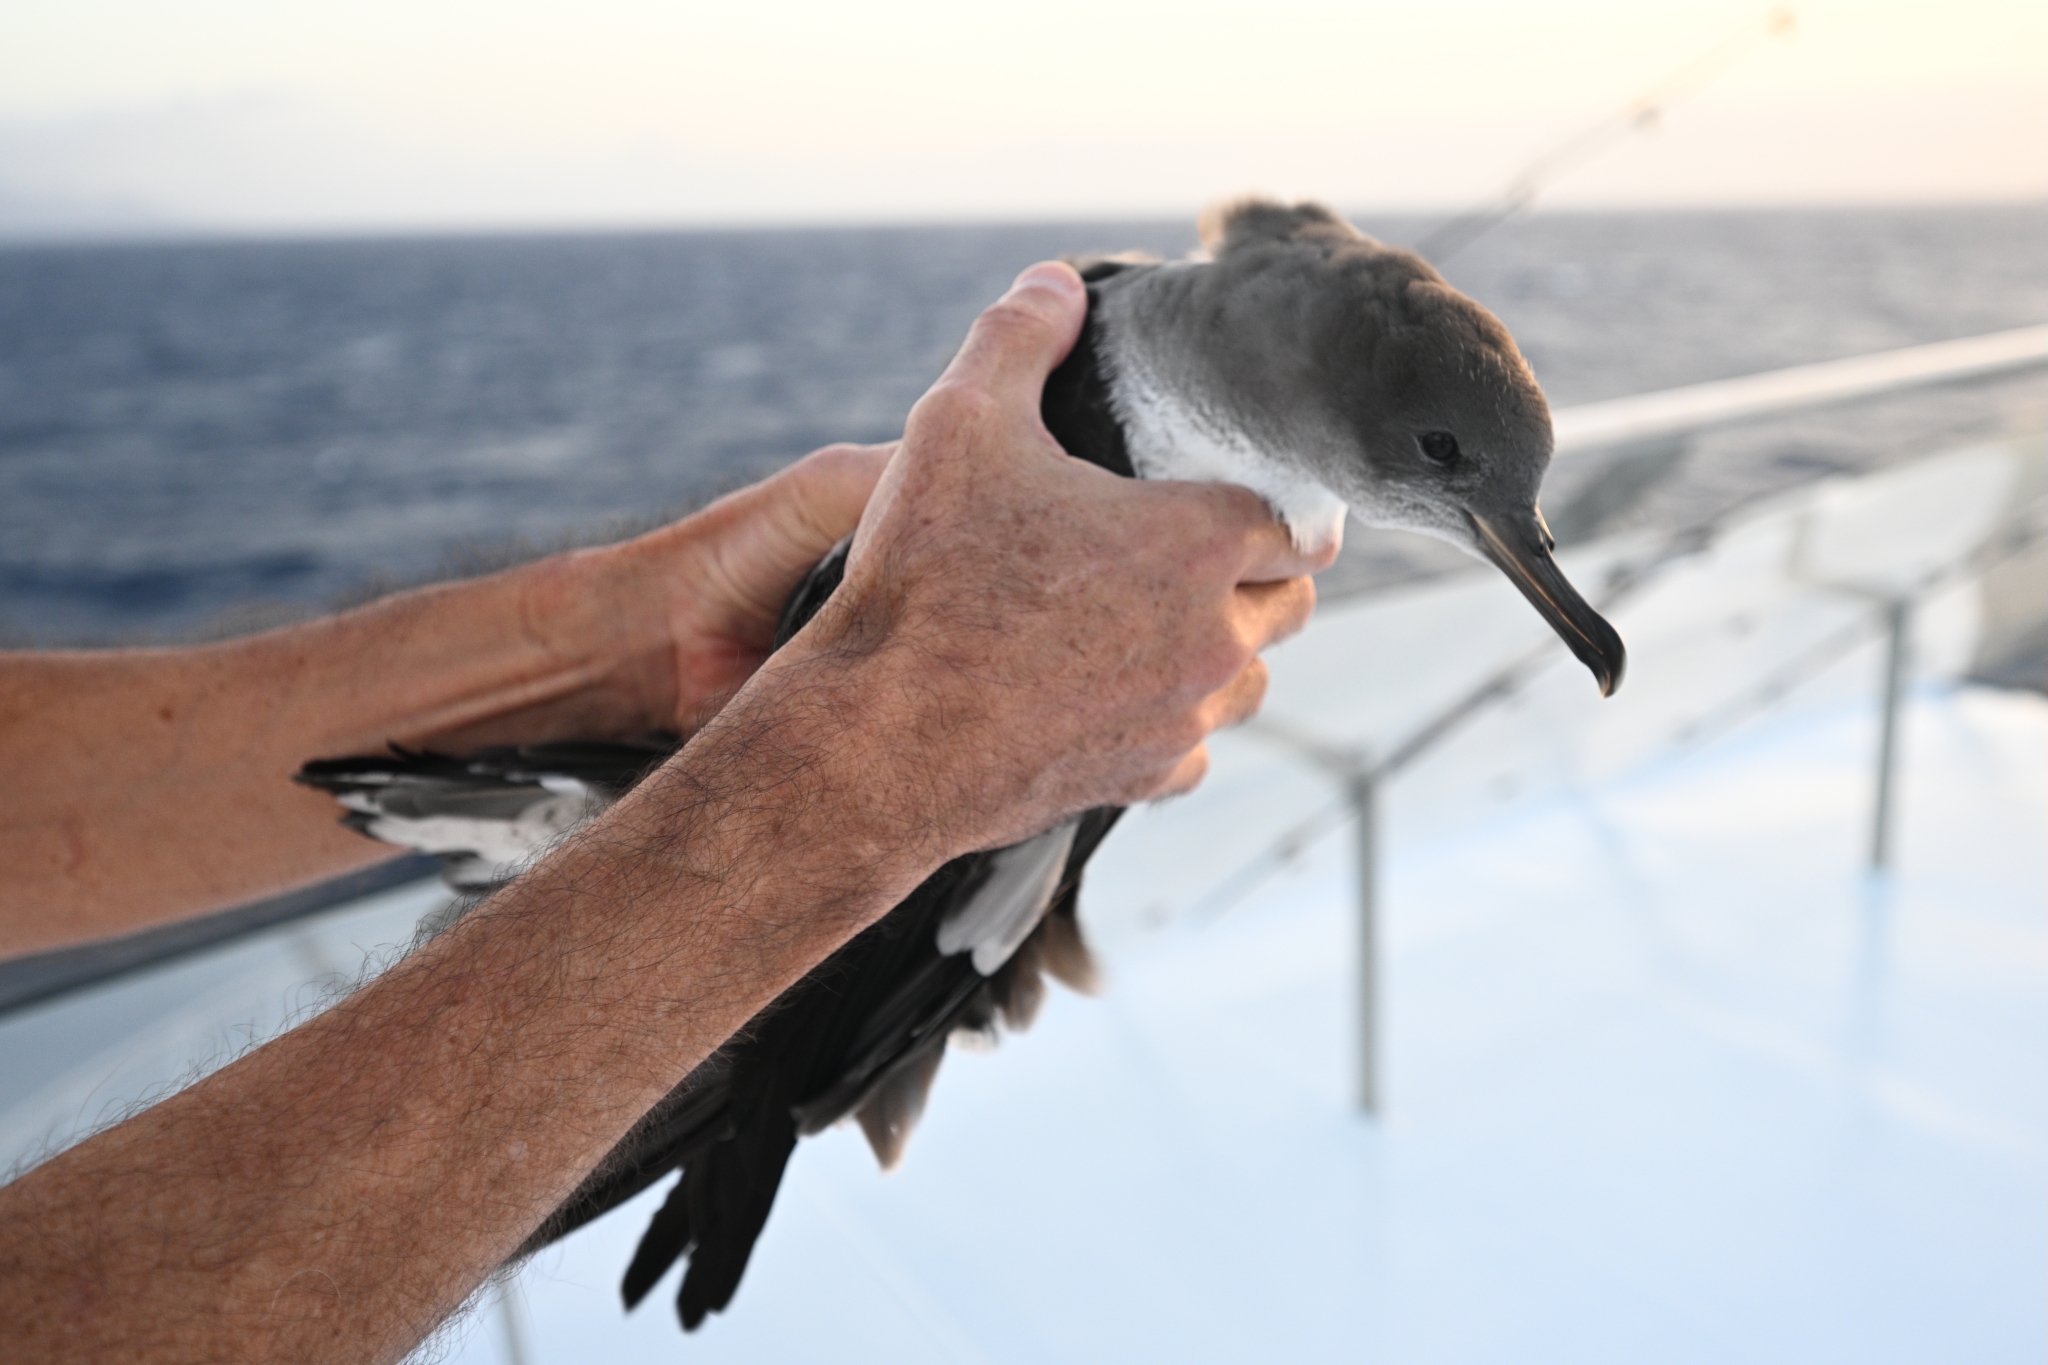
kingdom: Animalia
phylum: Chordata
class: Aves
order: Procellariiformes
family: Procellariidae
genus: Calonectris
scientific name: Calonectris edwardsii
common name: Cape verde shearwater
